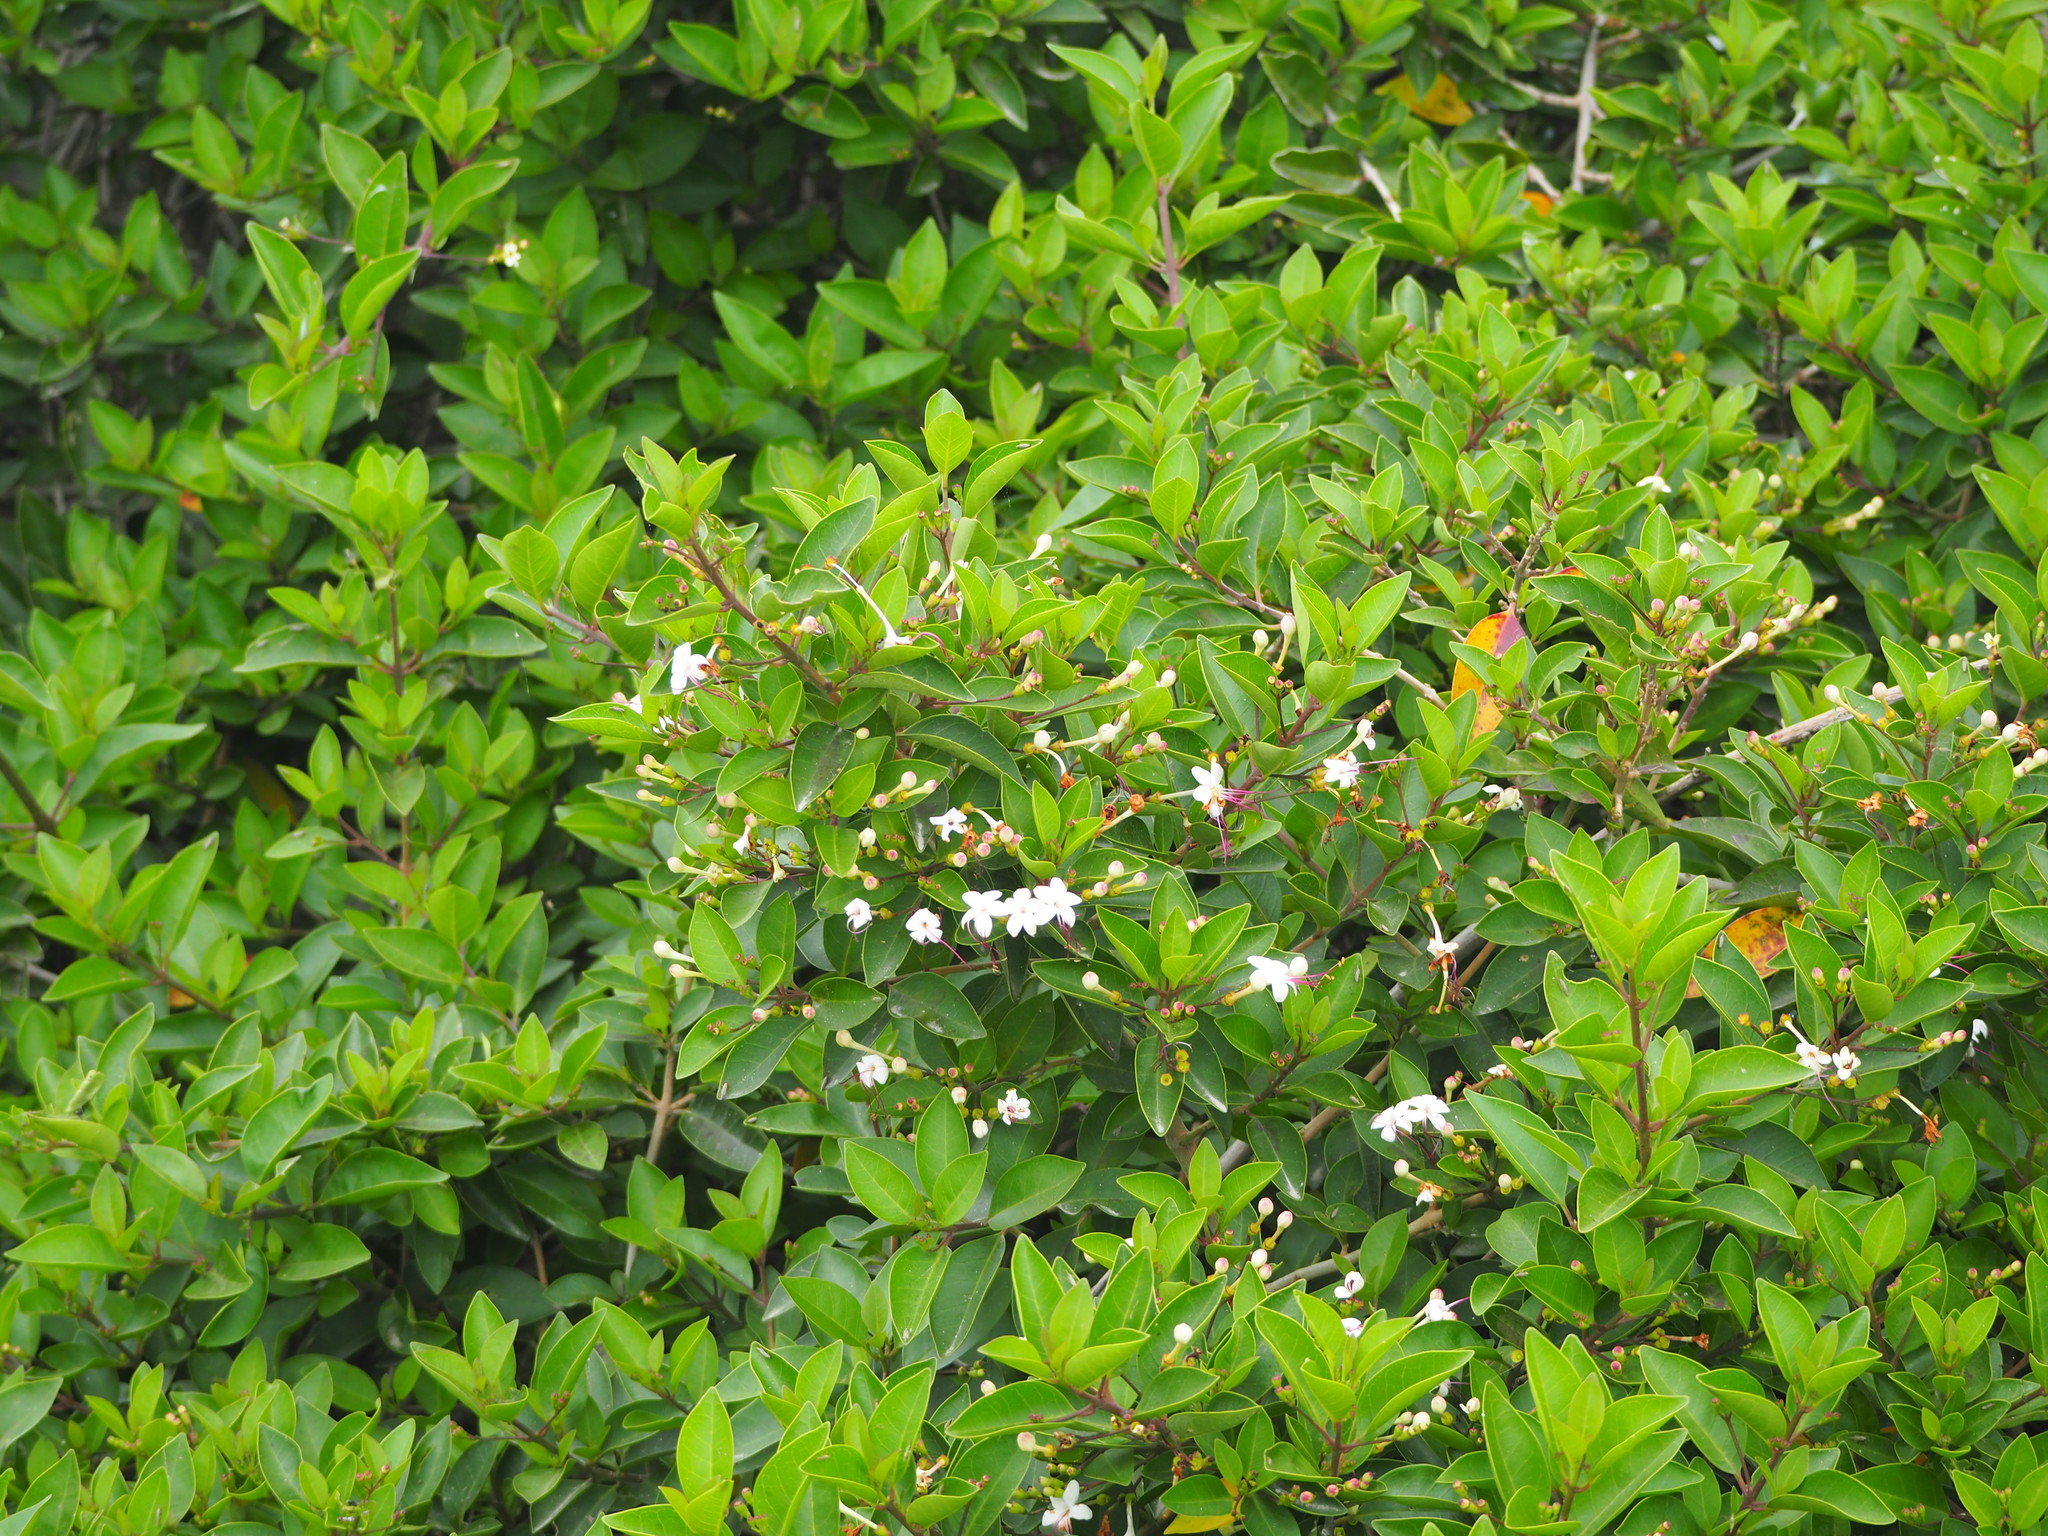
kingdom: Plantae
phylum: Tracheophyta
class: Magnoliopsida
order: Lamiales
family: Lamiaceae
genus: Volkameria
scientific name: Volkameria inermis
